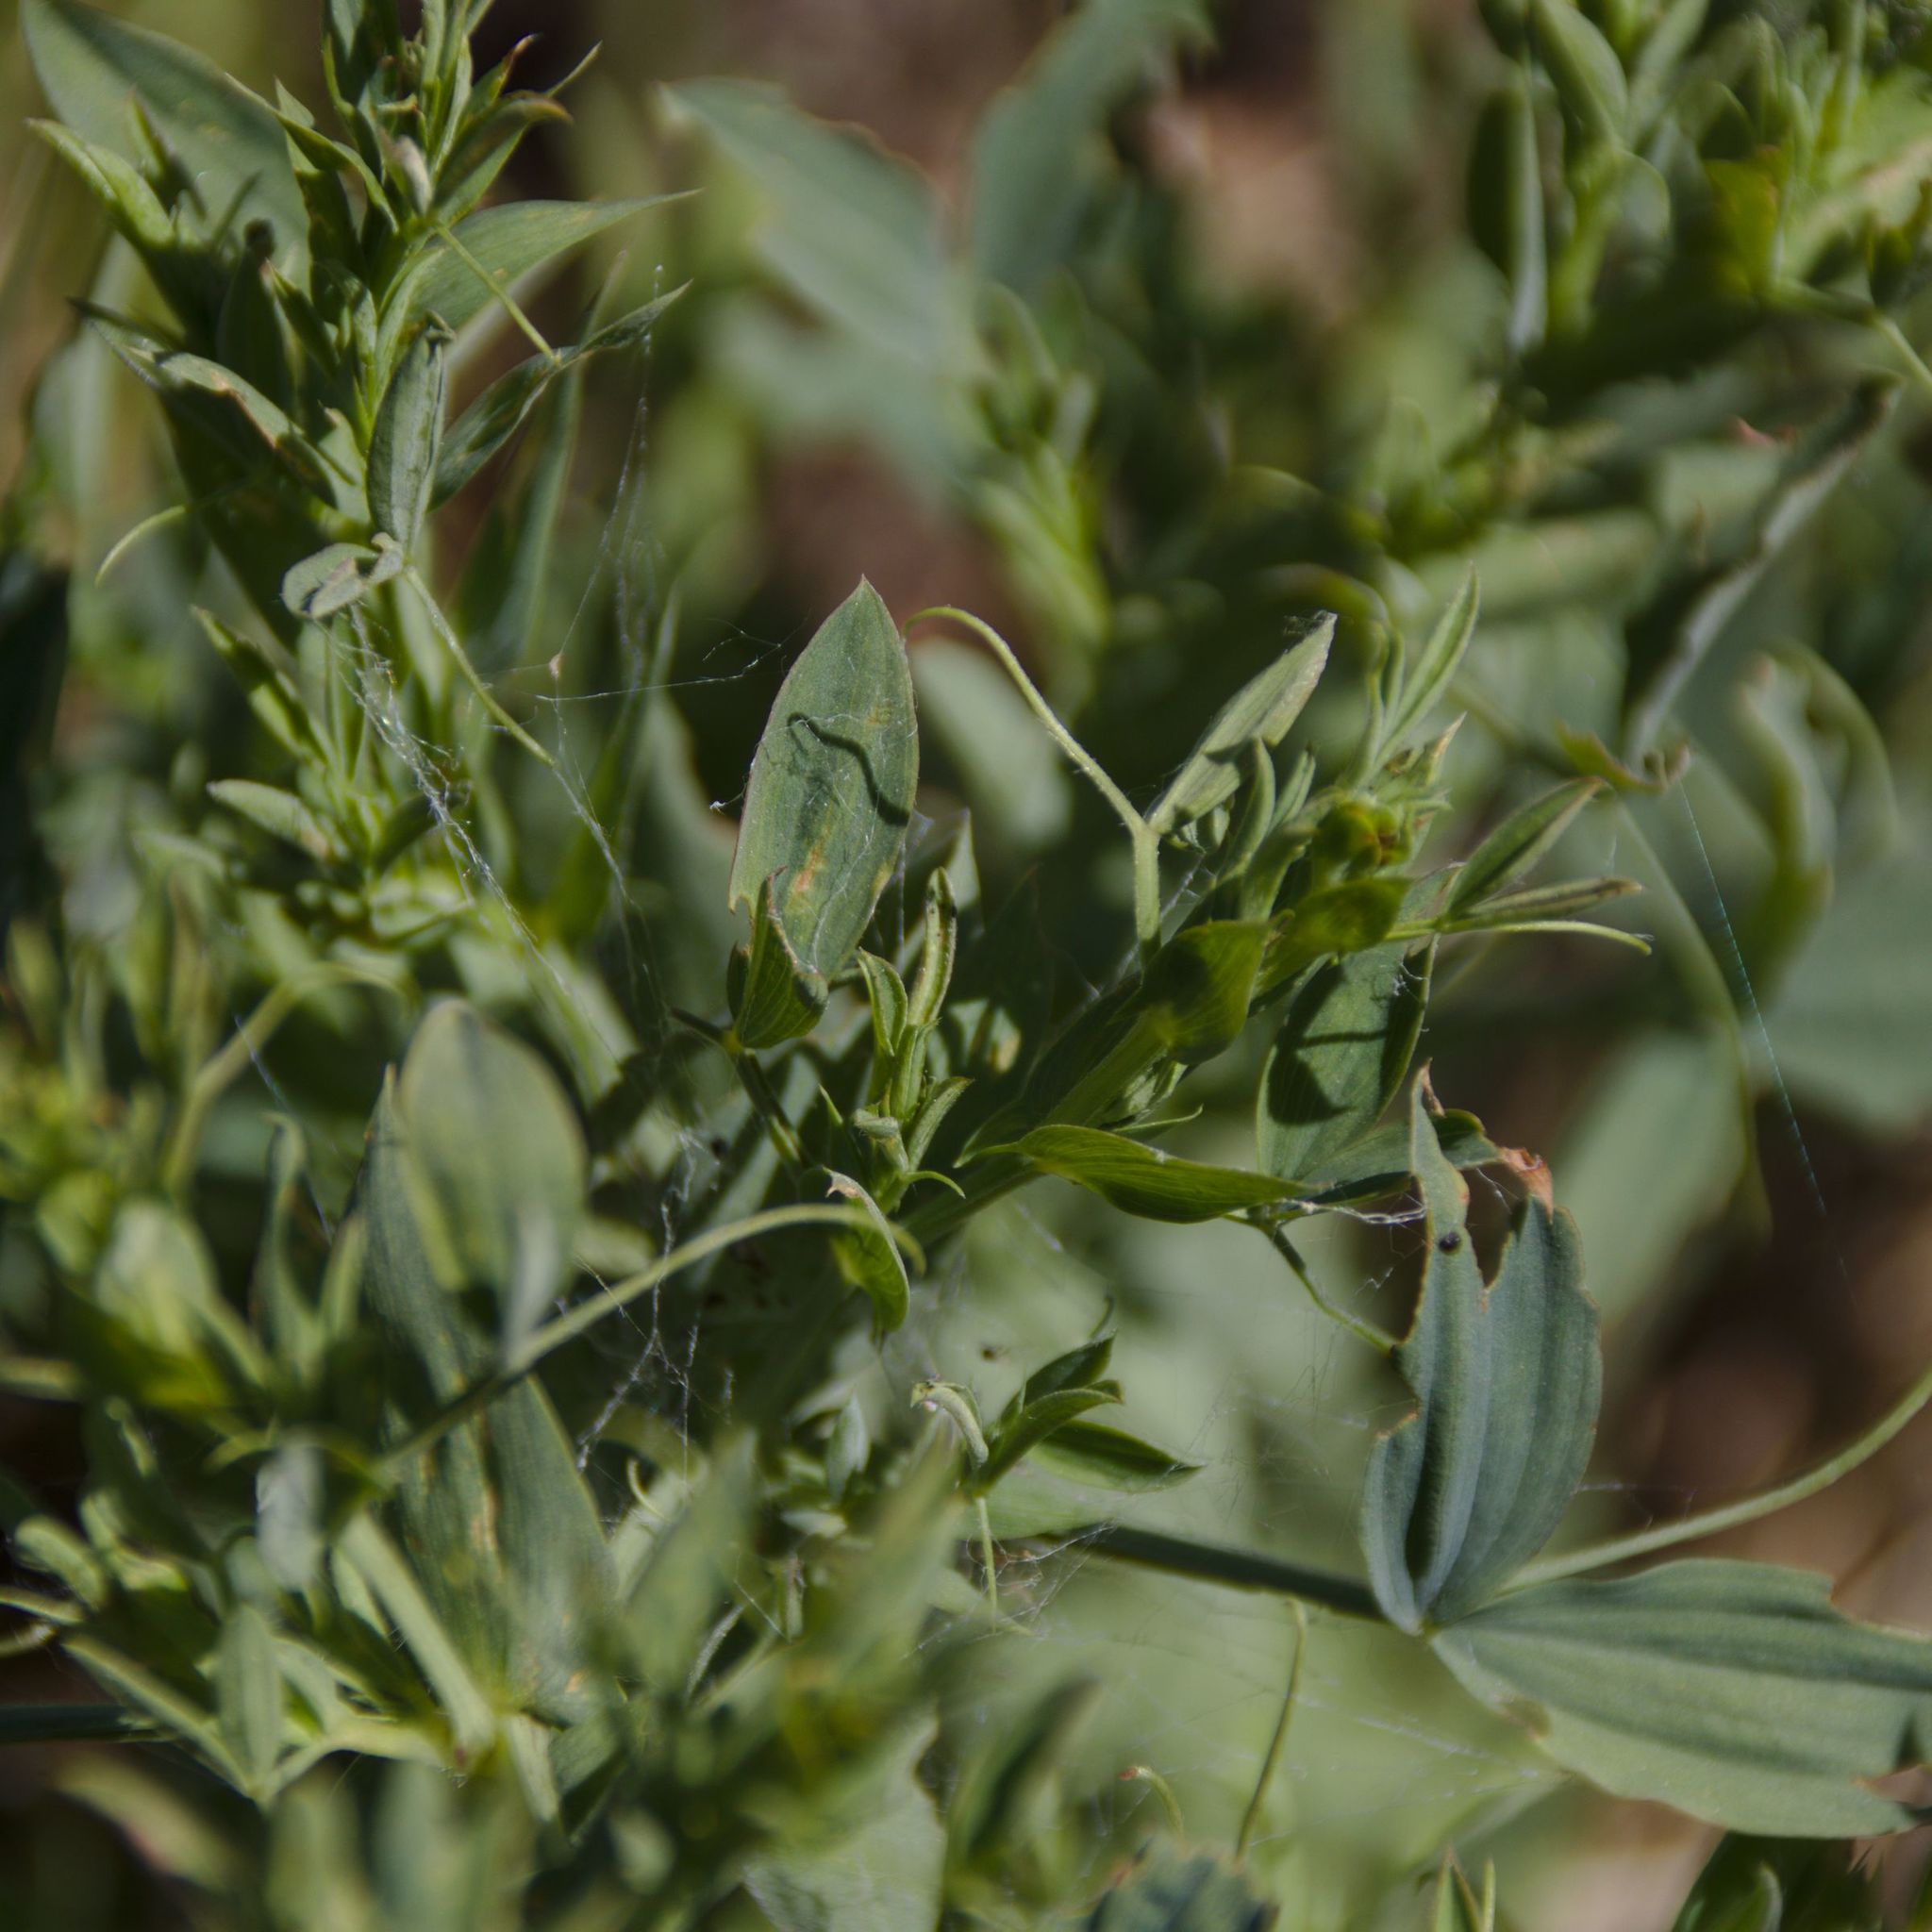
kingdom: Plantae
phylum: Tracheophyta
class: Magnoliopsida
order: Fabales
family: Fabaceae
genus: Lathyrus
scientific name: Lathyrus pratensis
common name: Meadow vetchling
